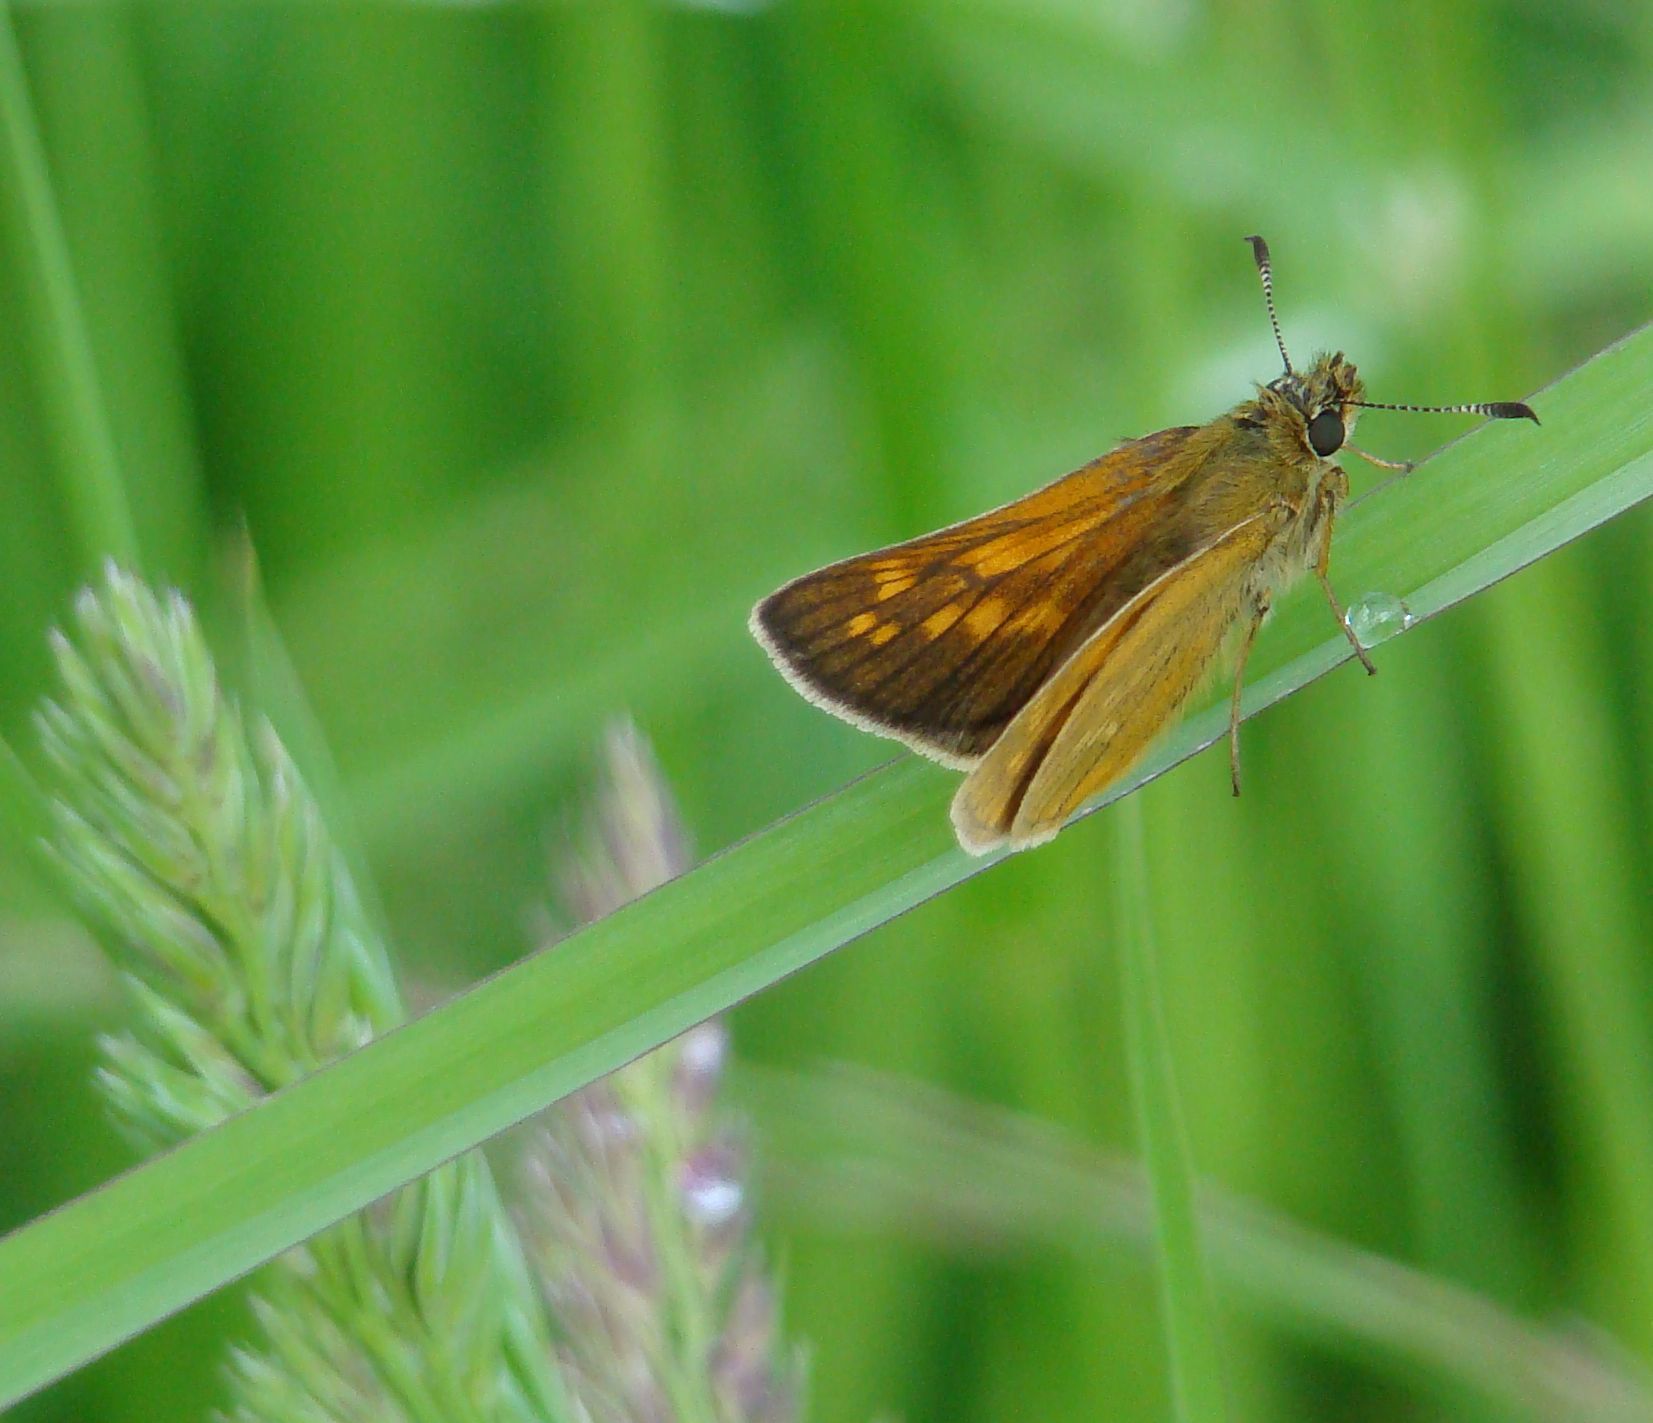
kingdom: Animalia
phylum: Arthropoda
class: Insecta
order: Lepidoptera
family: Hesperiidae
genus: Ochlodes
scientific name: Ochlodes venata
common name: Large skipper
